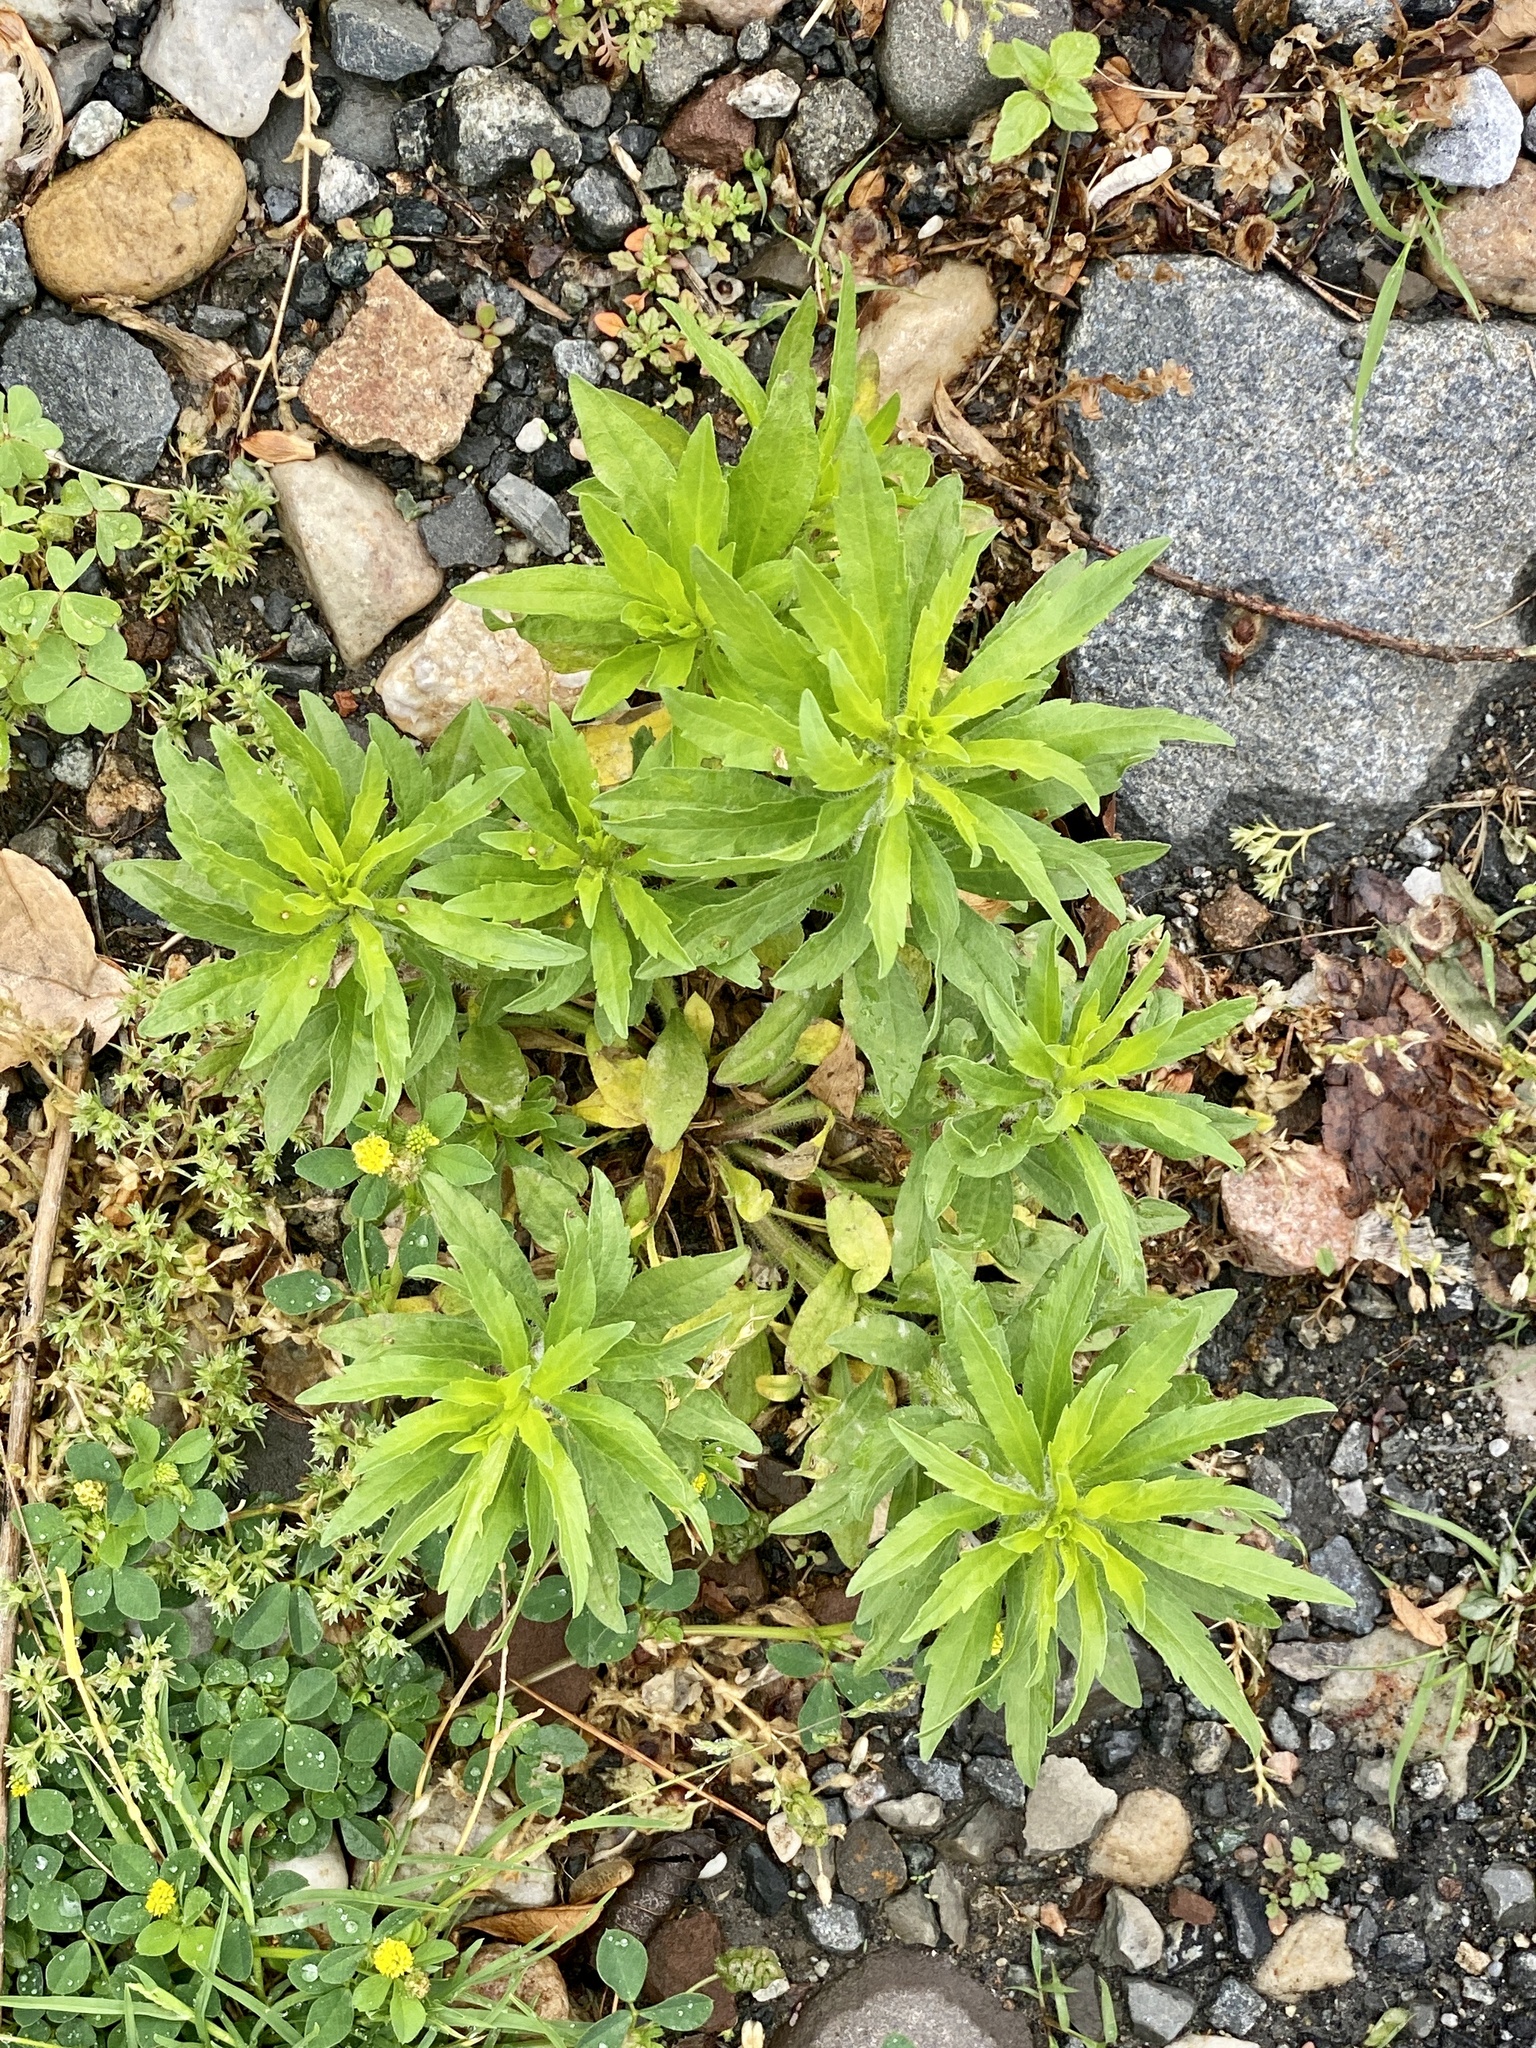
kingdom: Plantae
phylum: Tracheophyta
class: Magnoliopsida
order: Asterales
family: Asteraceae
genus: Erigeron
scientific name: Erigeron canadensis
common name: Canadian fleabane
